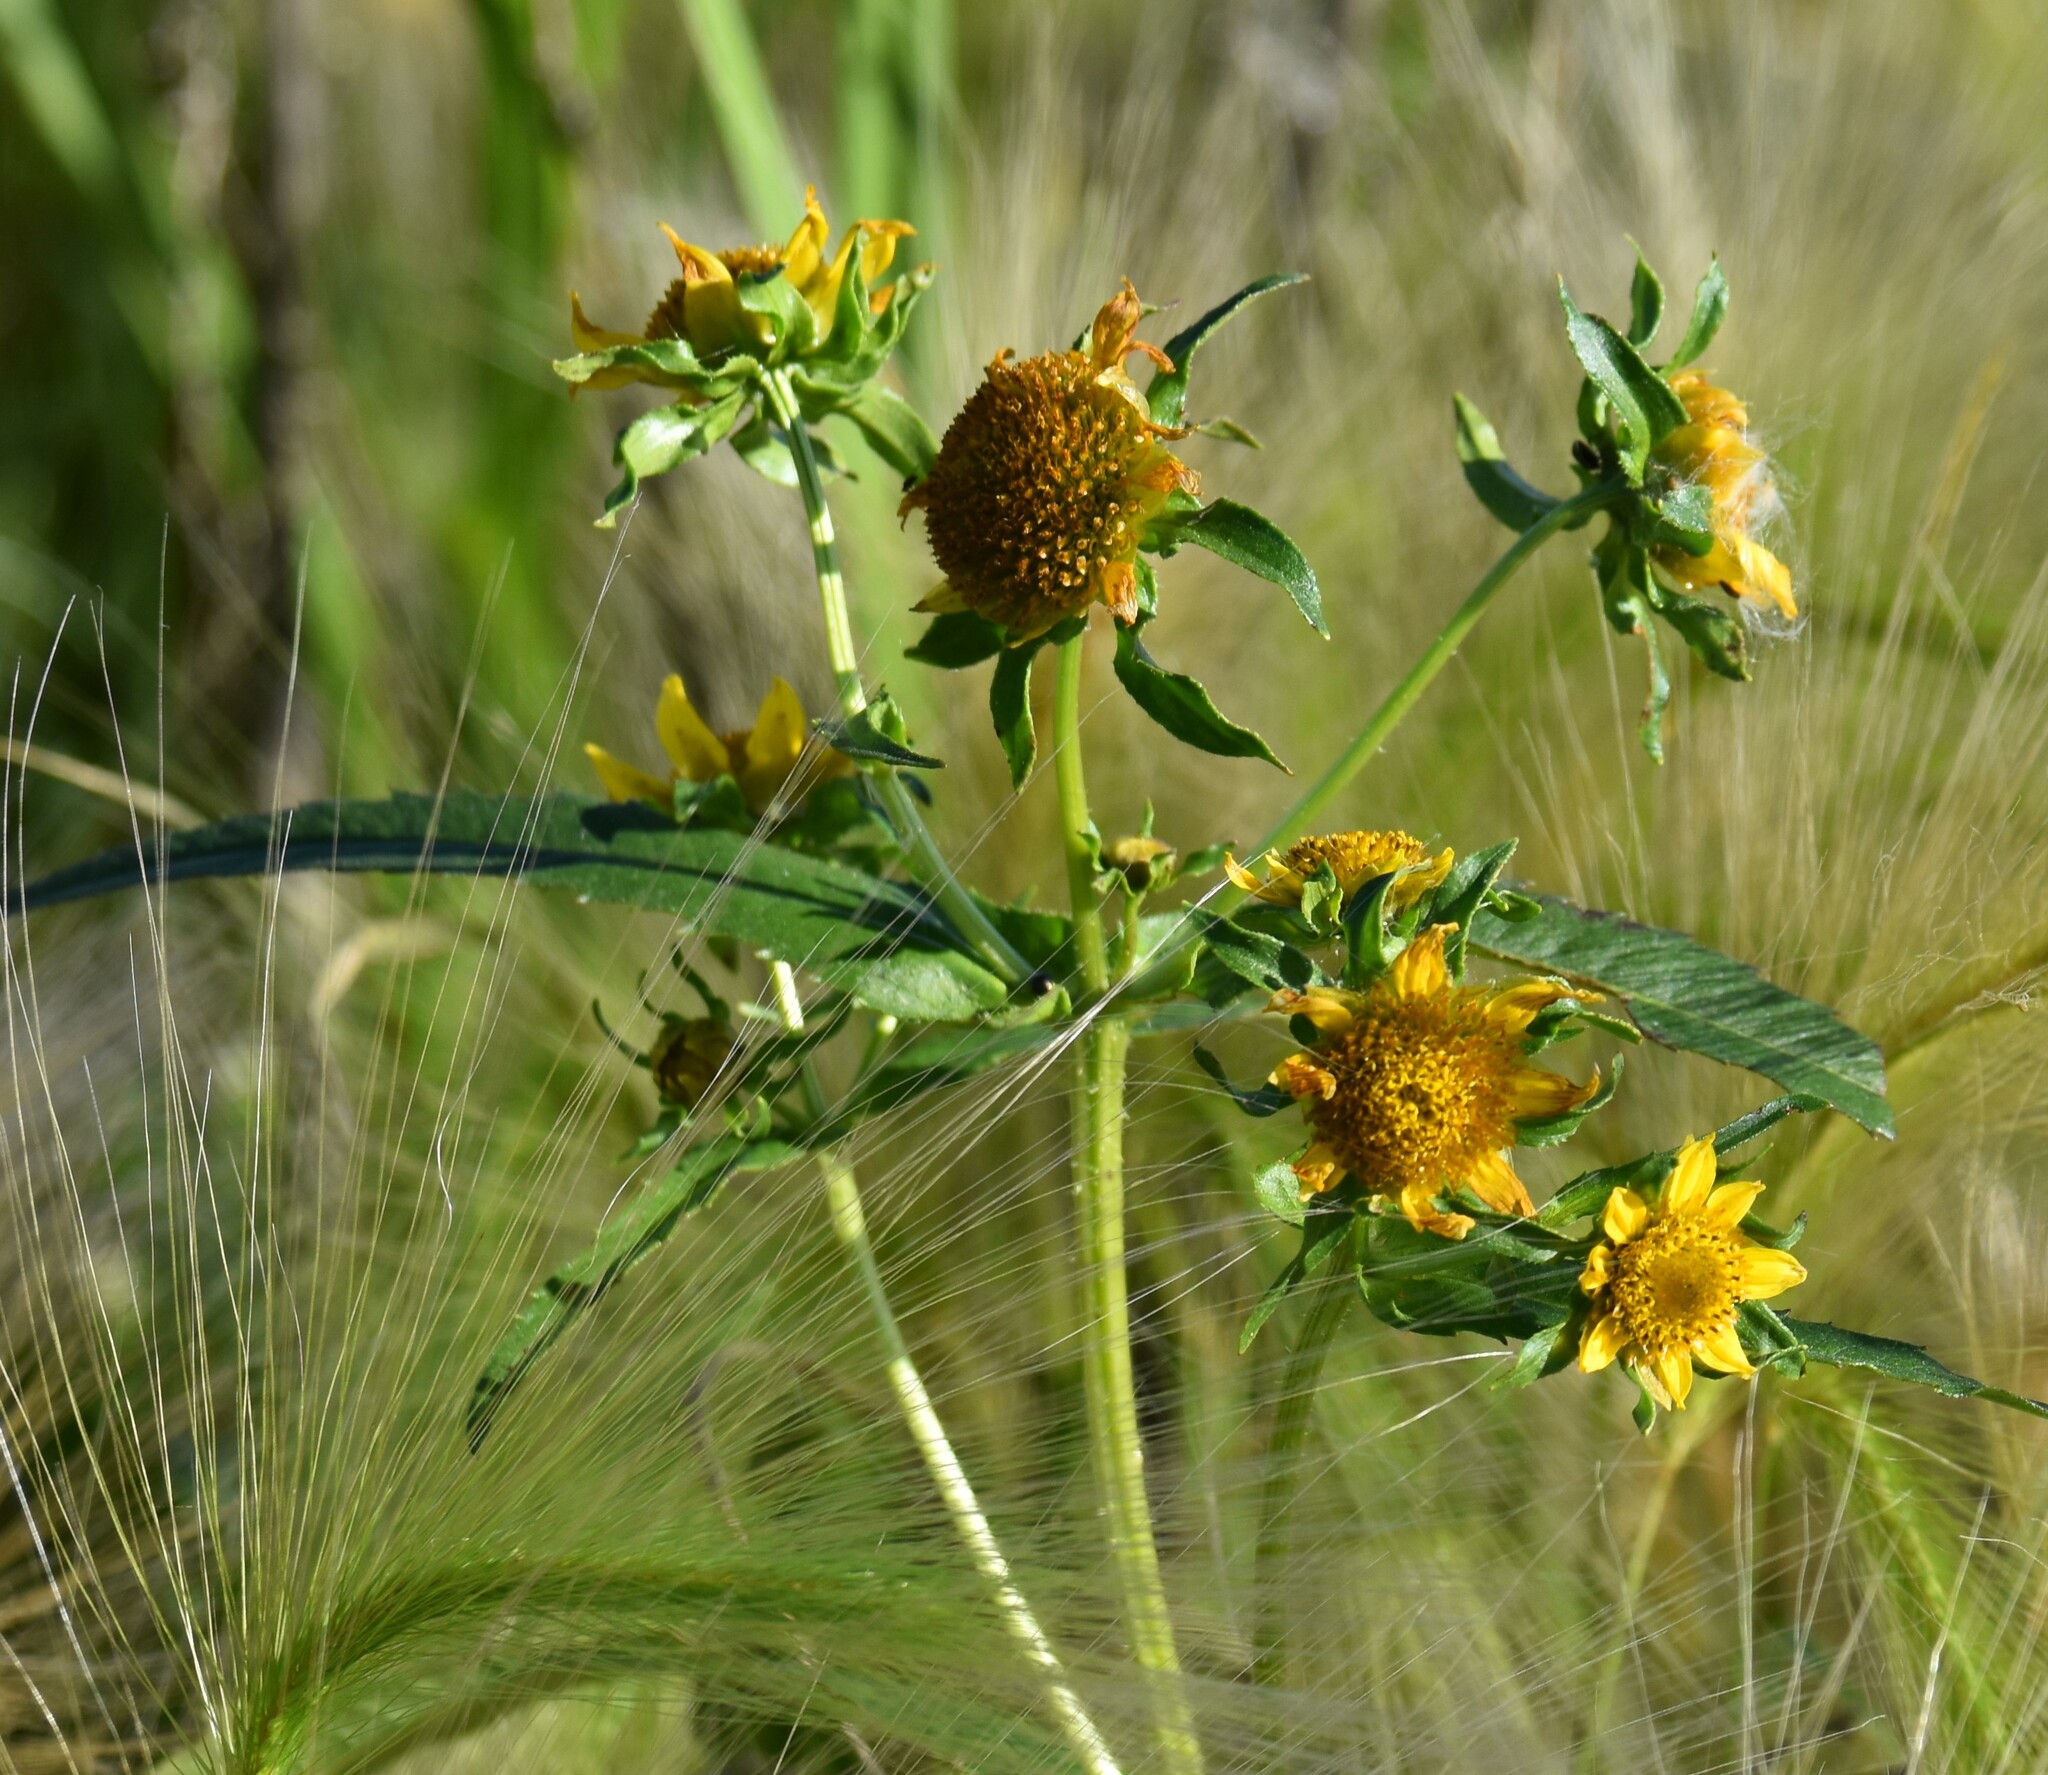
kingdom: Plantae
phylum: Tracheophyta
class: Magnoliopsida
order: Asterales
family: Asteraceae
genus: Bidens
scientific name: Bidens cernua
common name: Nodding bur-marigold
